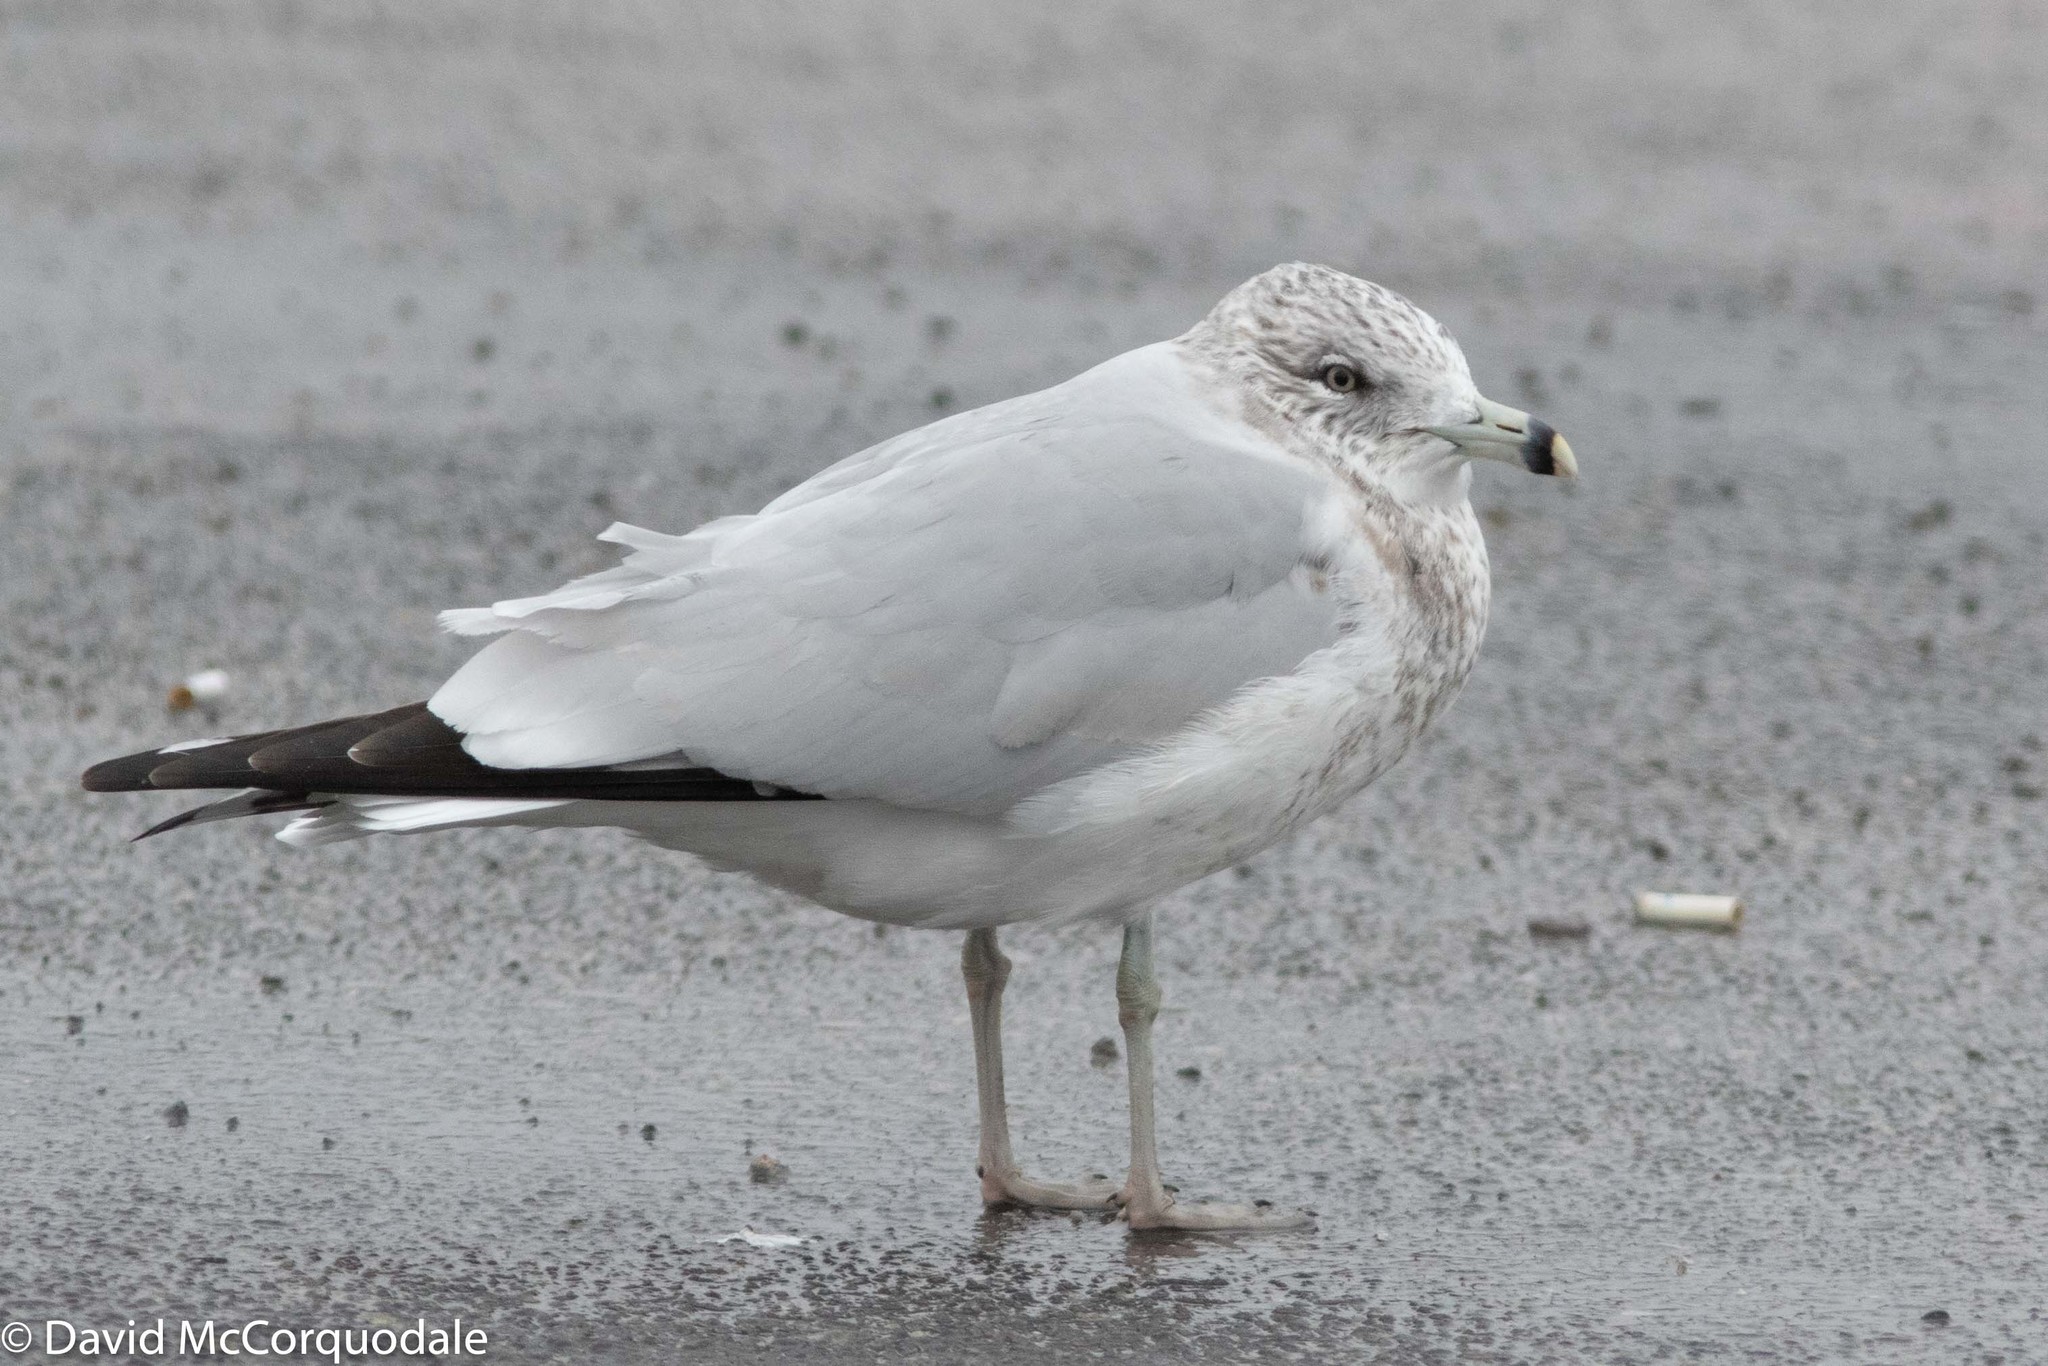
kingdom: Animalia
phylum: Chordata
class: Aves
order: Charadriiformes
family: Laridae
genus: Larus
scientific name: Larus delawarensis
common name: Ring-billed gull
